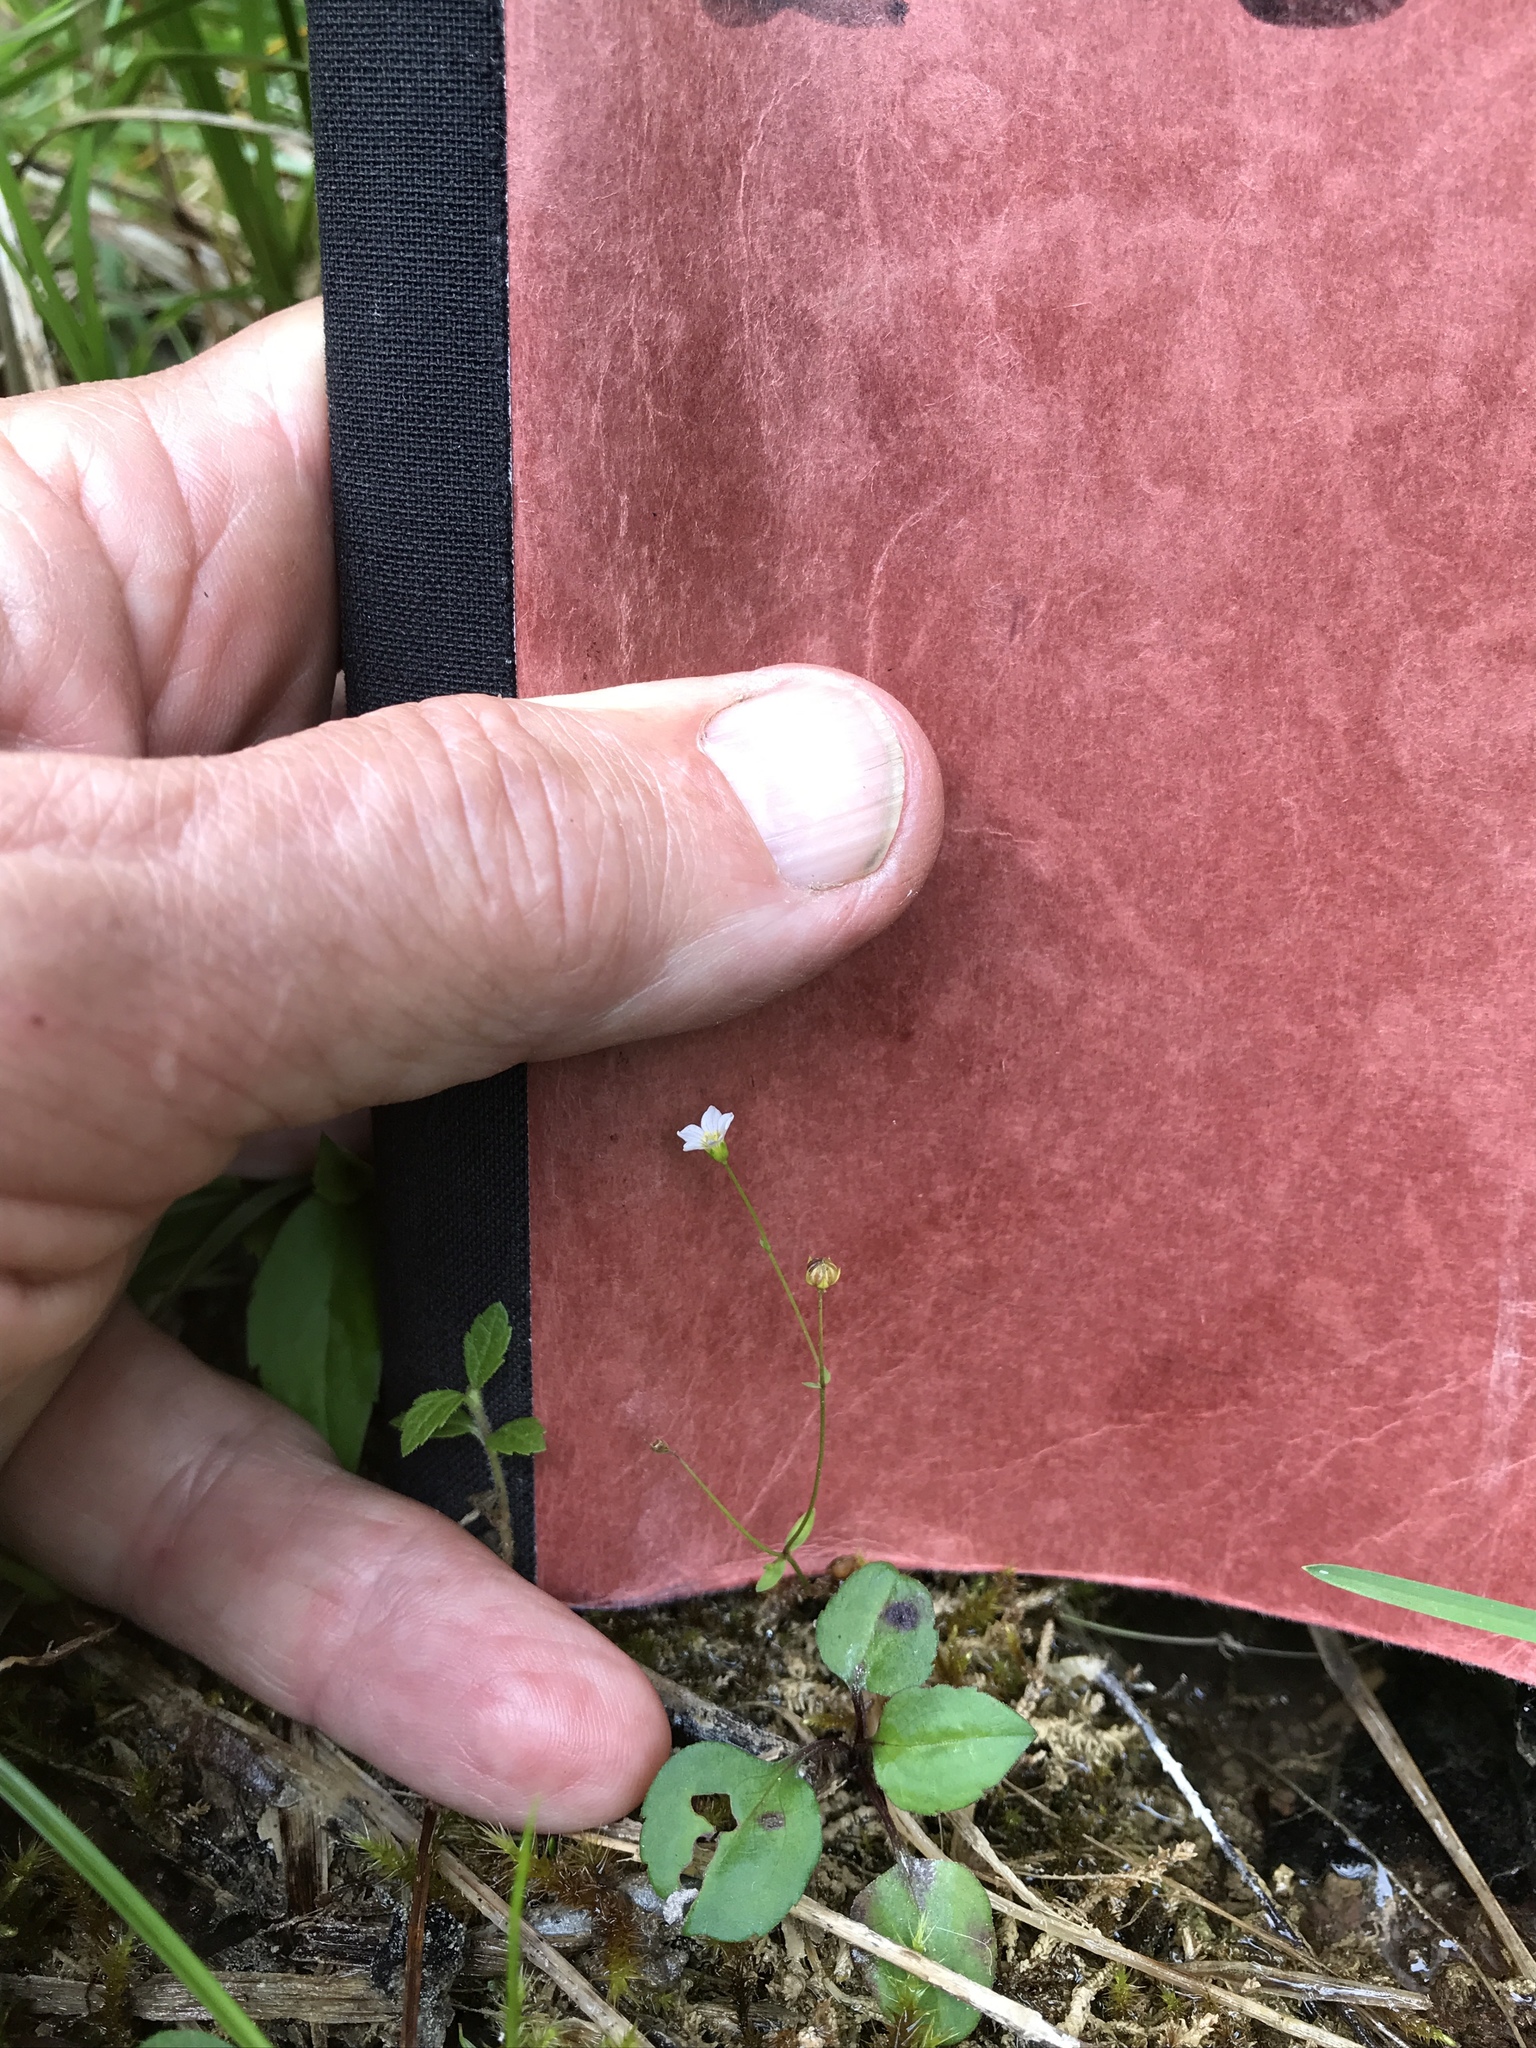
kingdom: Plantae
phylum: Tracheophyta
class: Magnoliopsida
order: Malpighiales
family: Linaceae
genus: Linum
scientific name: Linum catharticum
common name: Fairy flax
